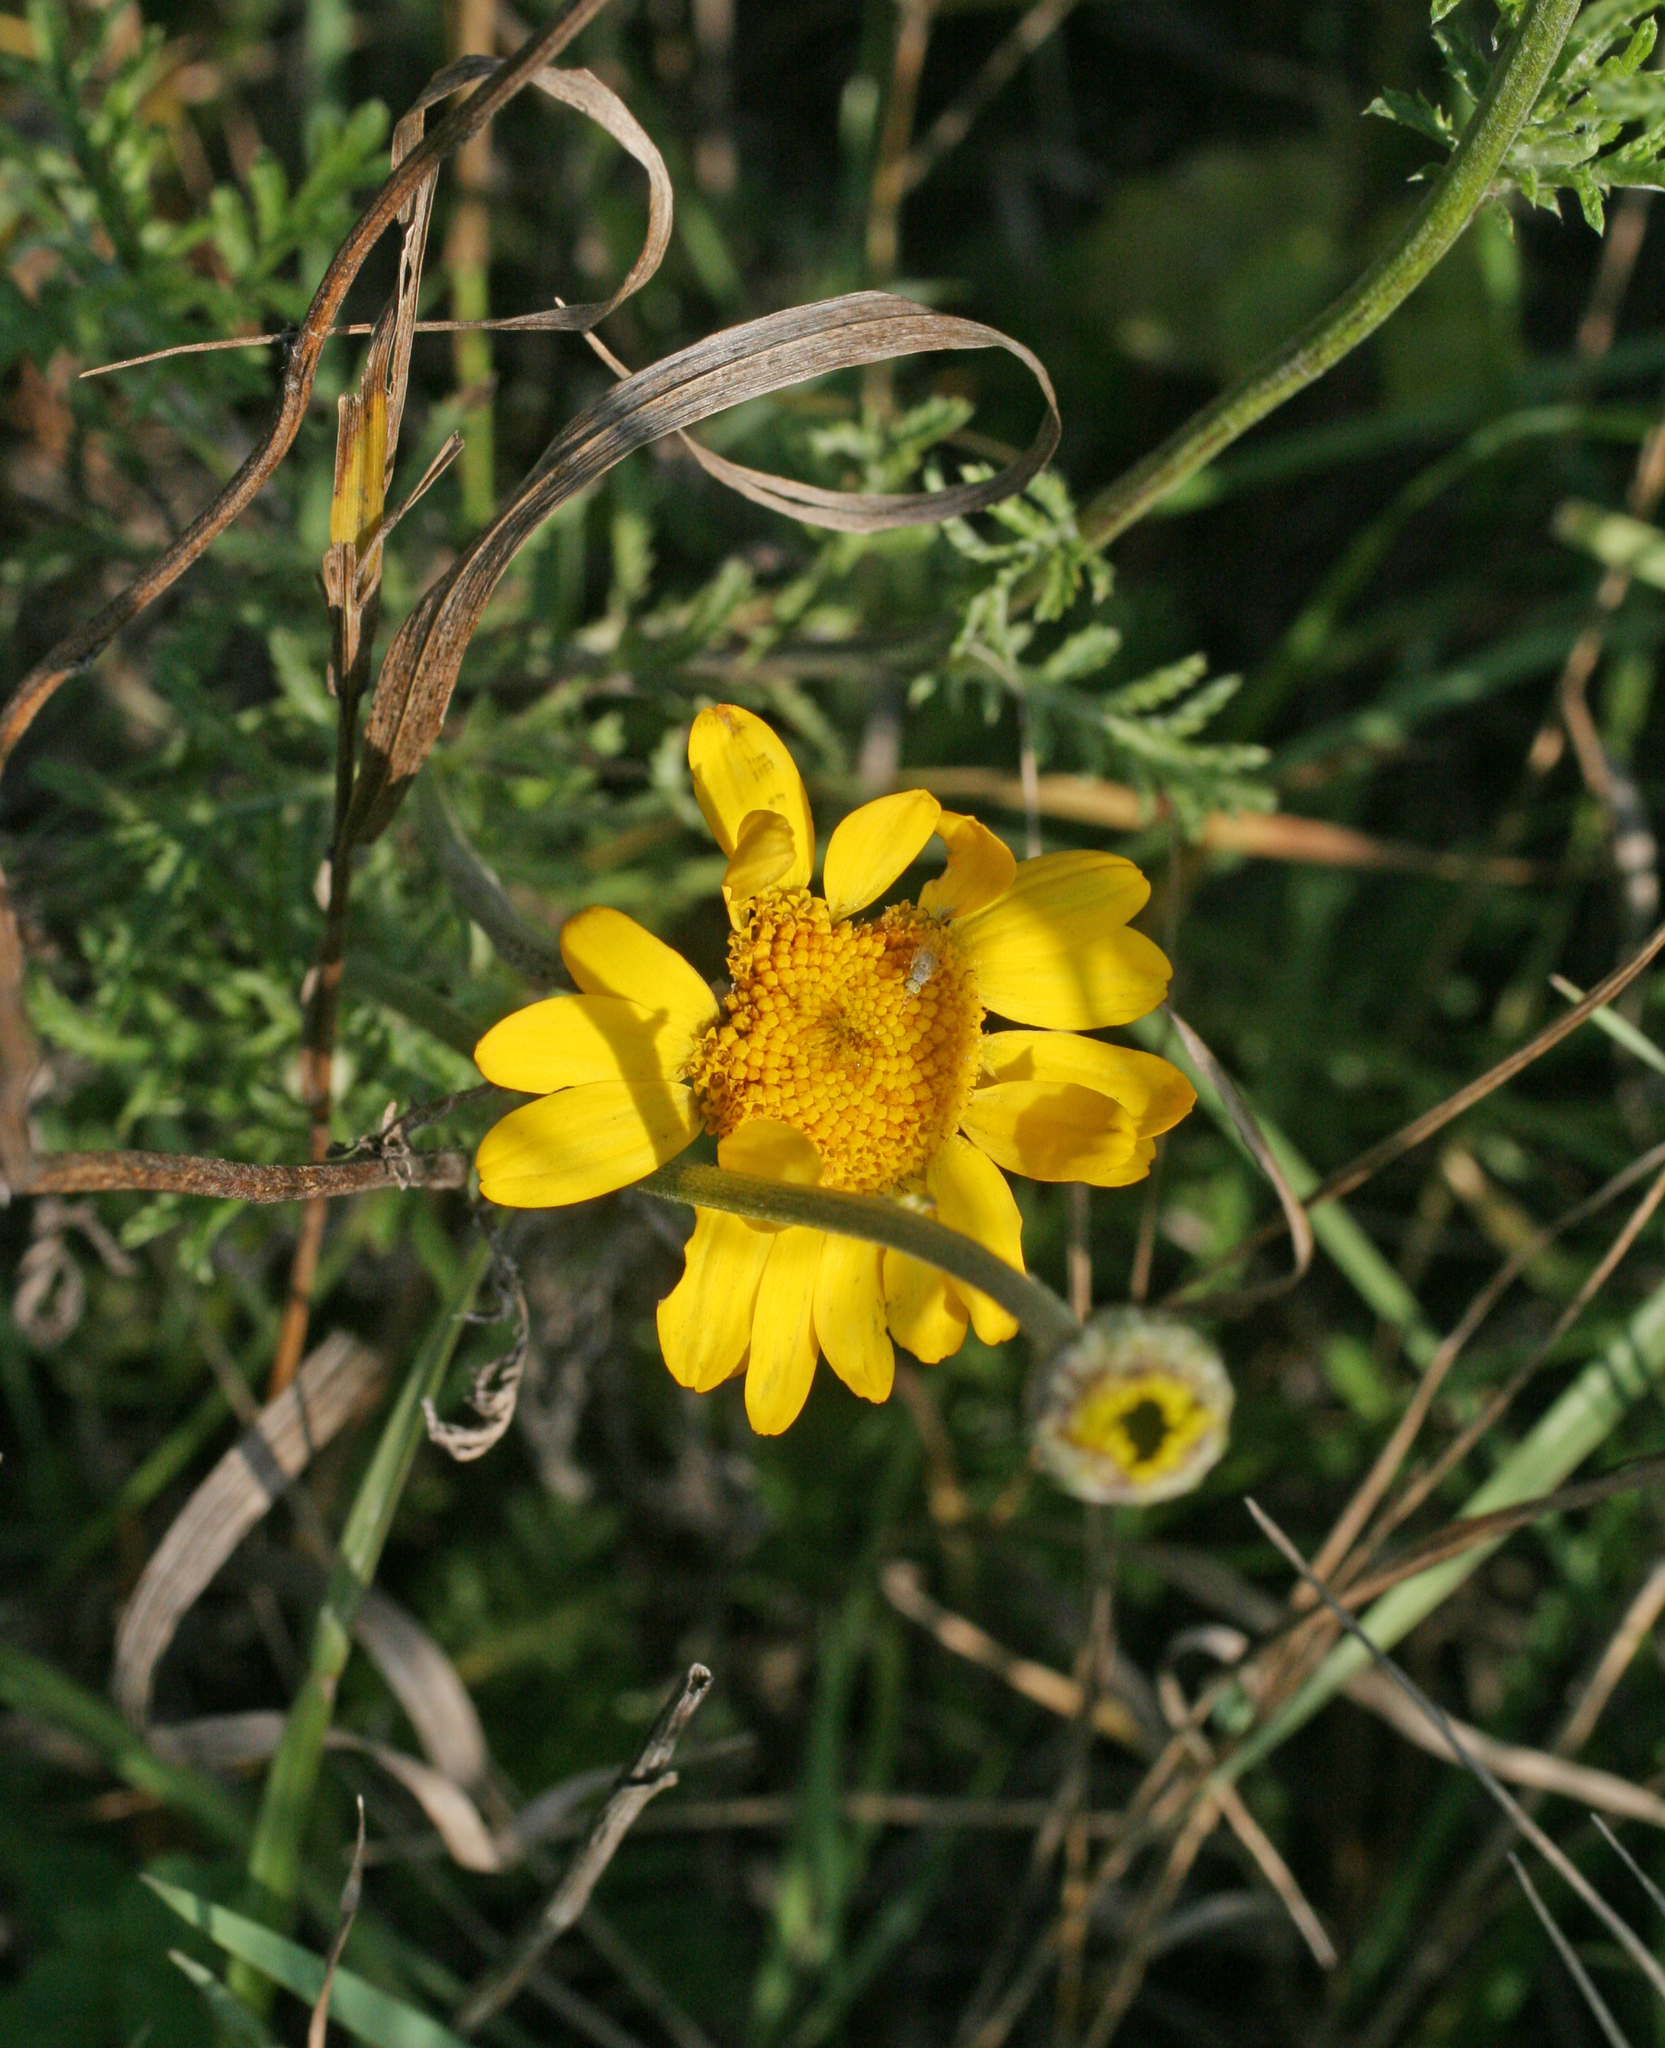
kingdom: Plantae
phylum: Tracheophyta
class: Magnoliopsida
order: Asterales
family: Asteraceae
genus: Cota
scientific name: Cota tinctoria
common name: Golden chamomile
